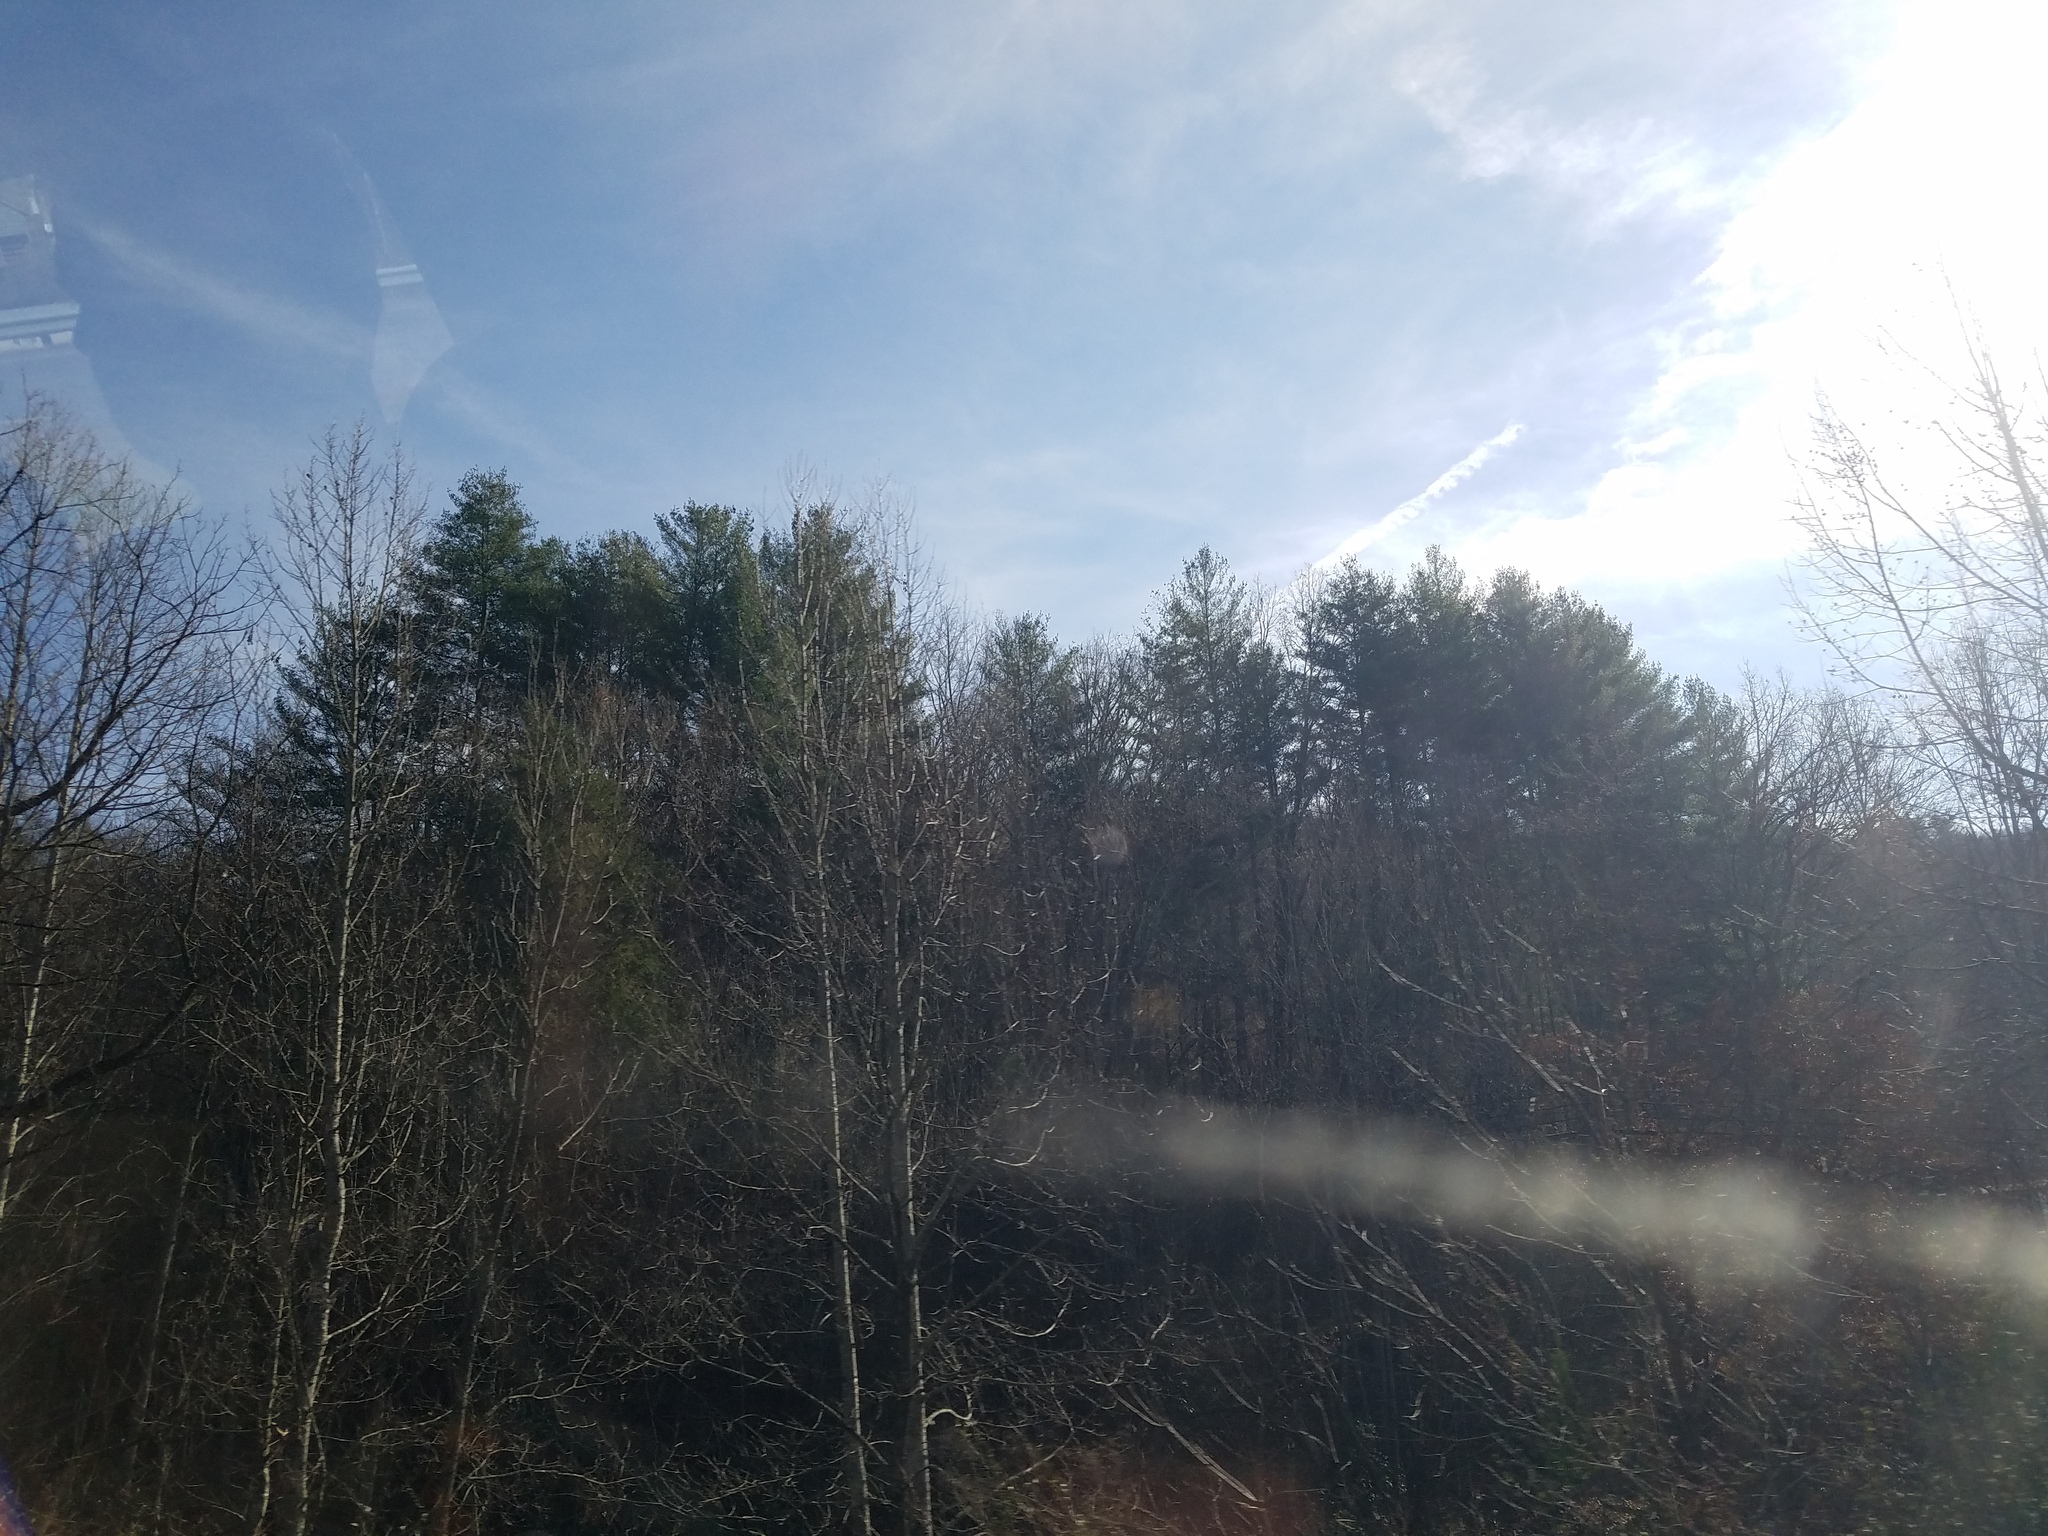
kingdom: Plantae
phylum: Tracheophyta
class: Pinopsida
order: Pinales
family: Pinaceae
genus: Pinus
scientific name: Pinus strobus
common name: Weymouth pine
